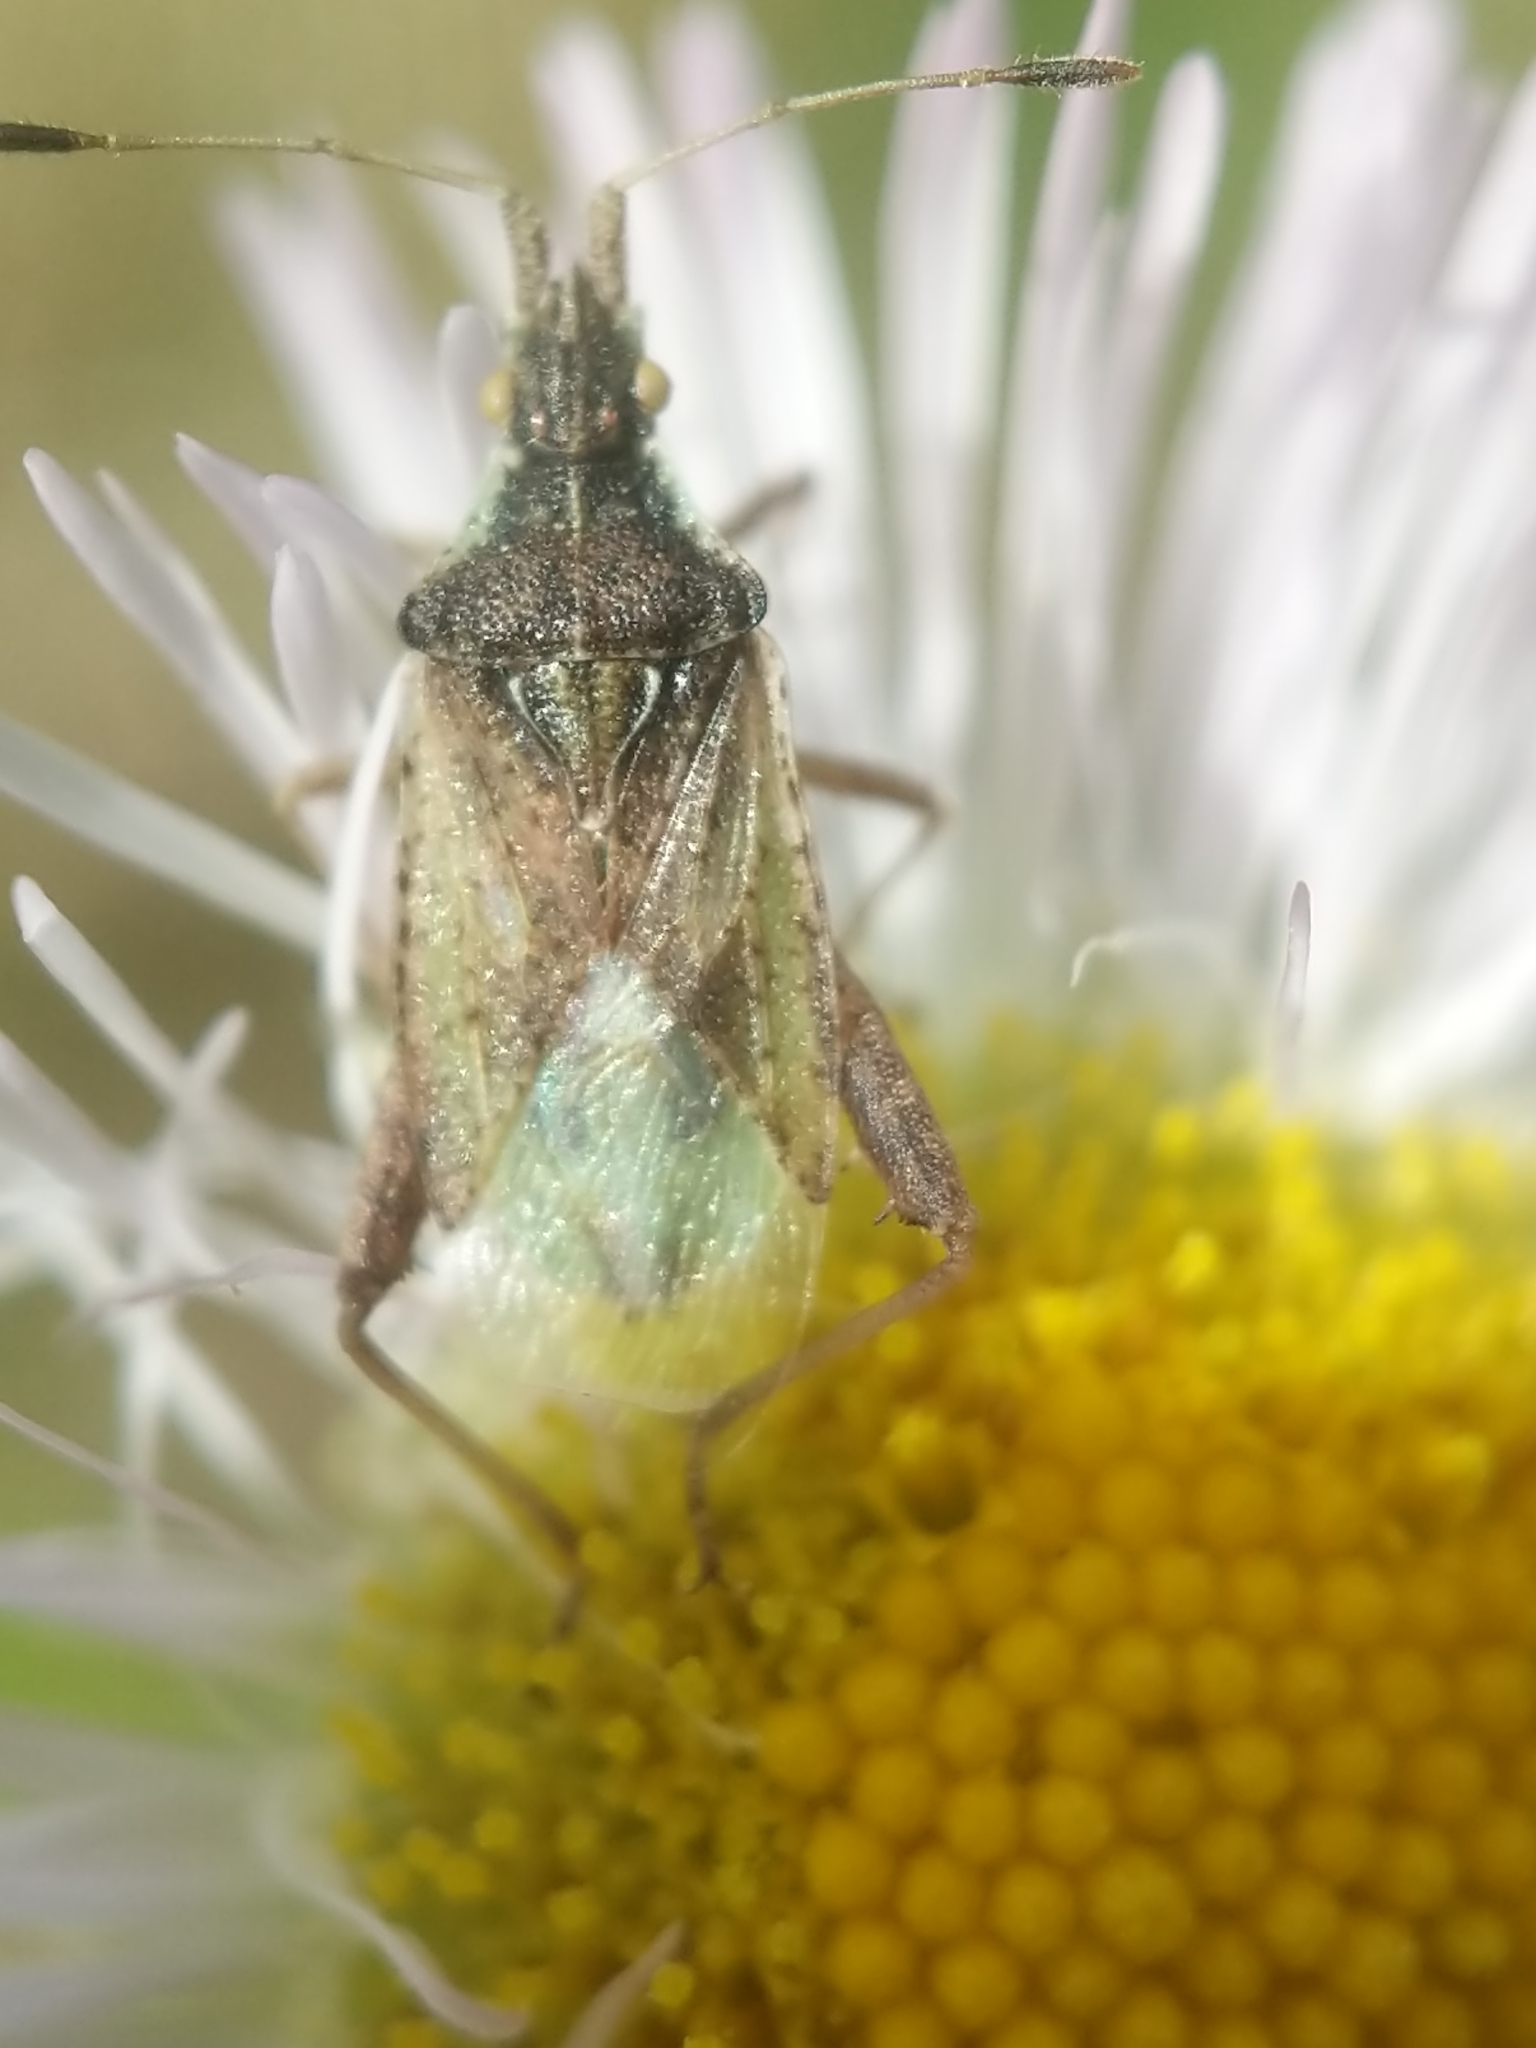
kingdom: Animalia
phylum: Arthropoda
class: Insecta
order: Hemiptera
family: Rhopalidae
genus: Harmostes
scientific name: Harmostes reflexulus
